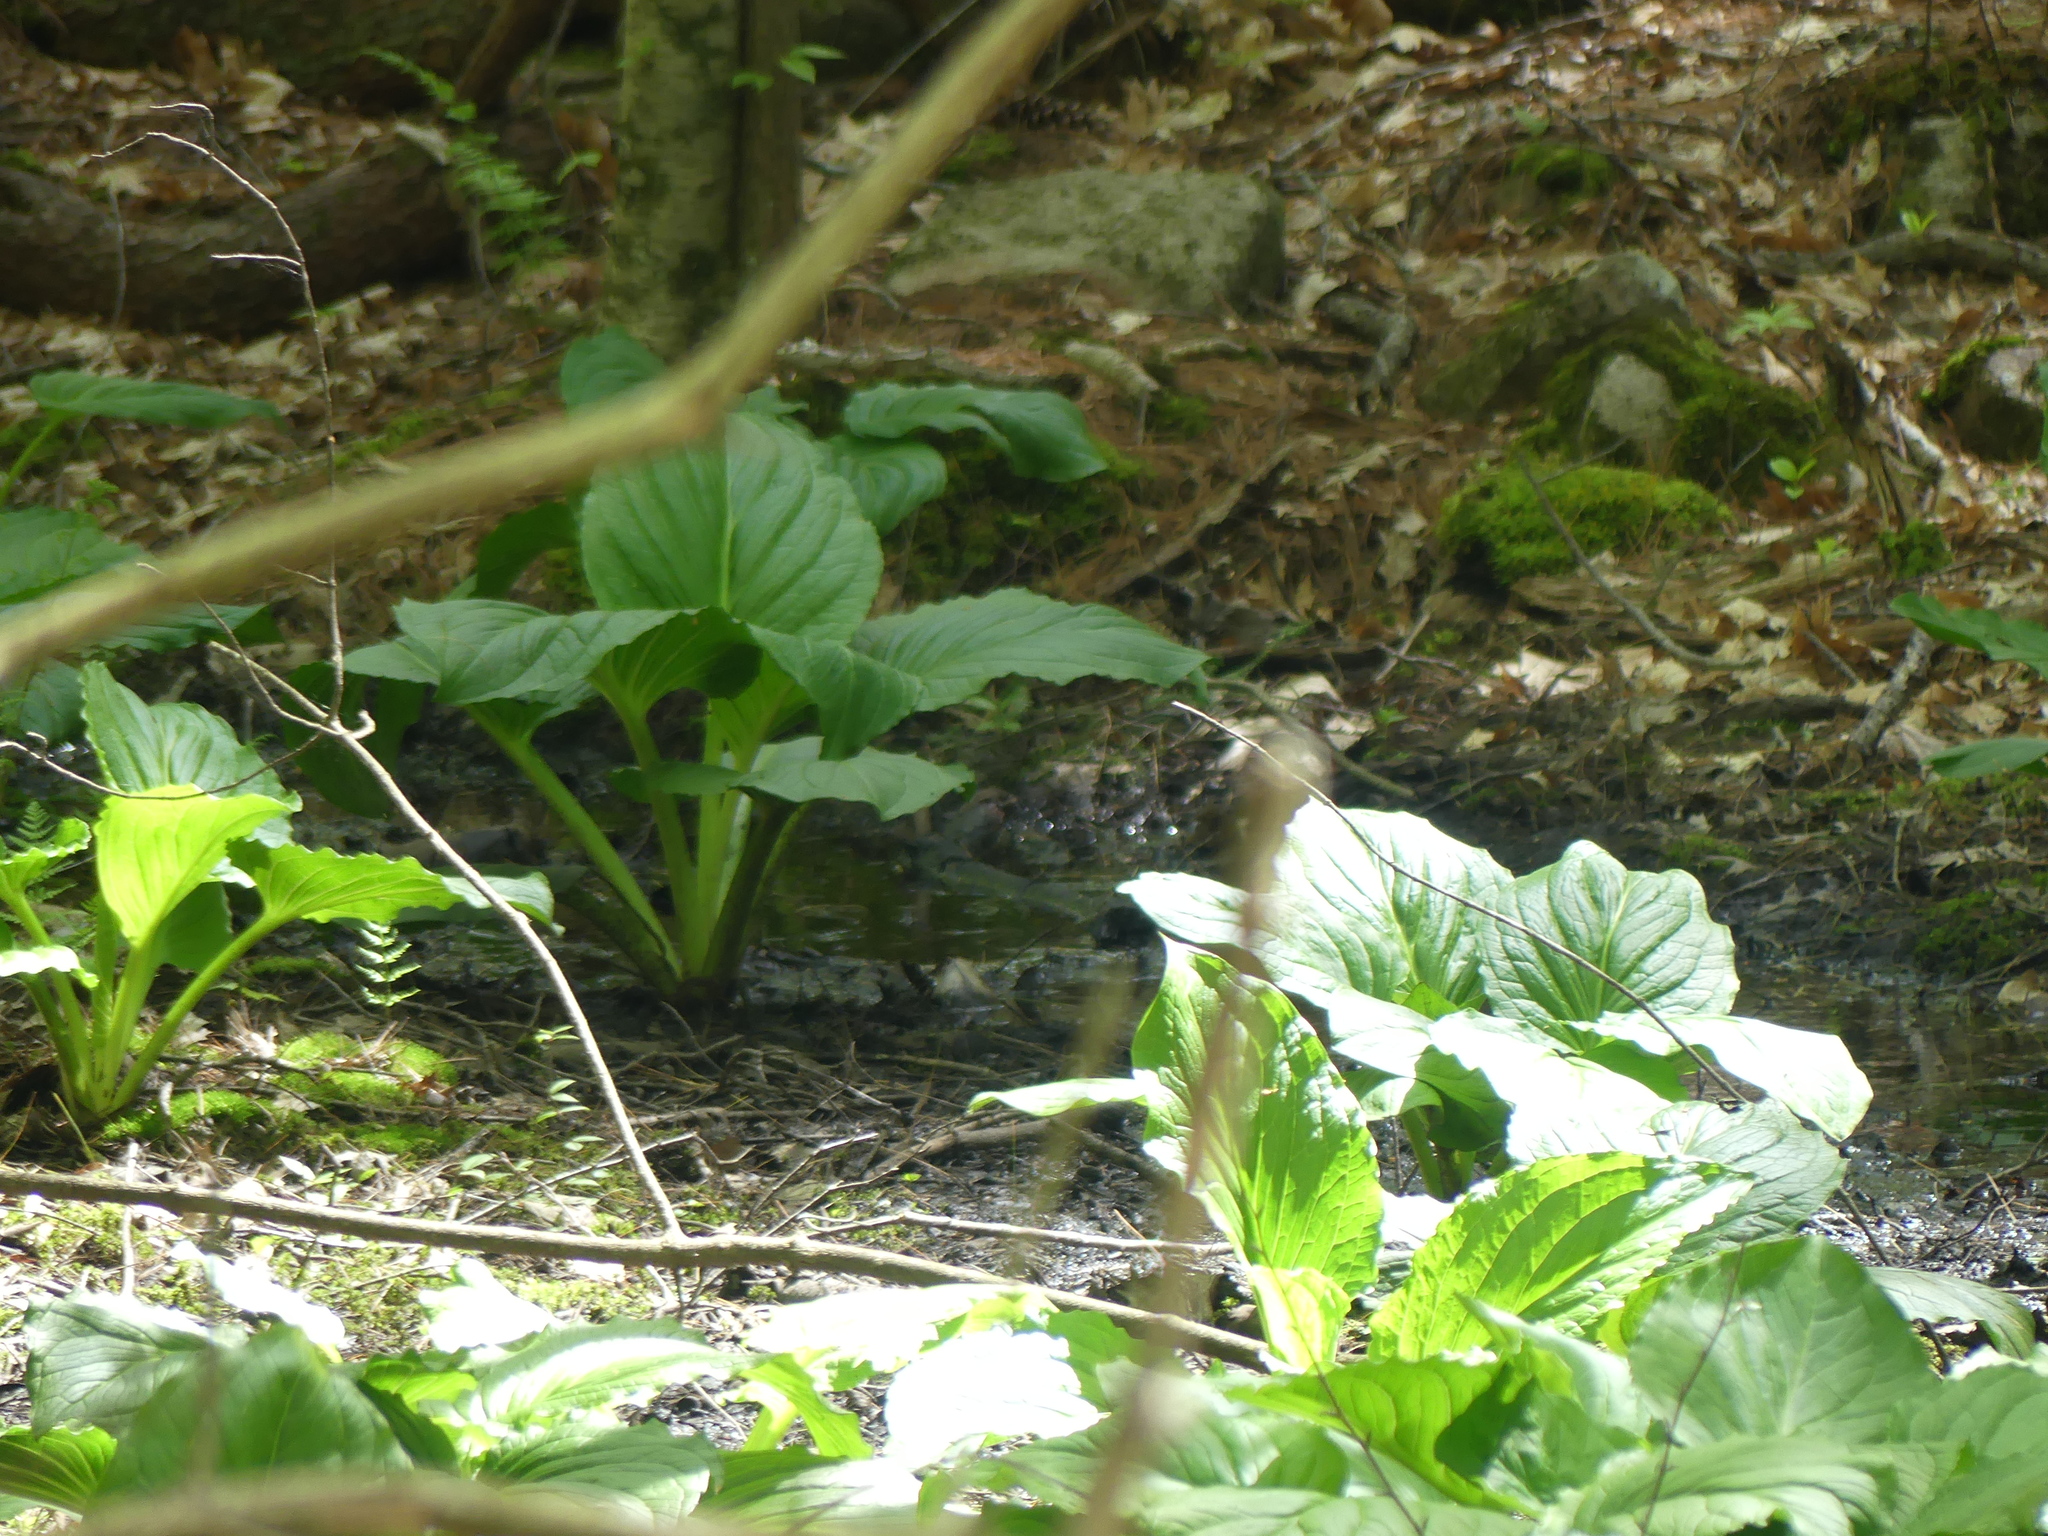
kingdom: Plantae
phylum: Tracheophyta
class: Liliopsida
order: Alismatales
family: Araceae
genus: Symplocarpus
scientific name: Symplocarpus foetidus
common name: Eastern skunk cabbage
